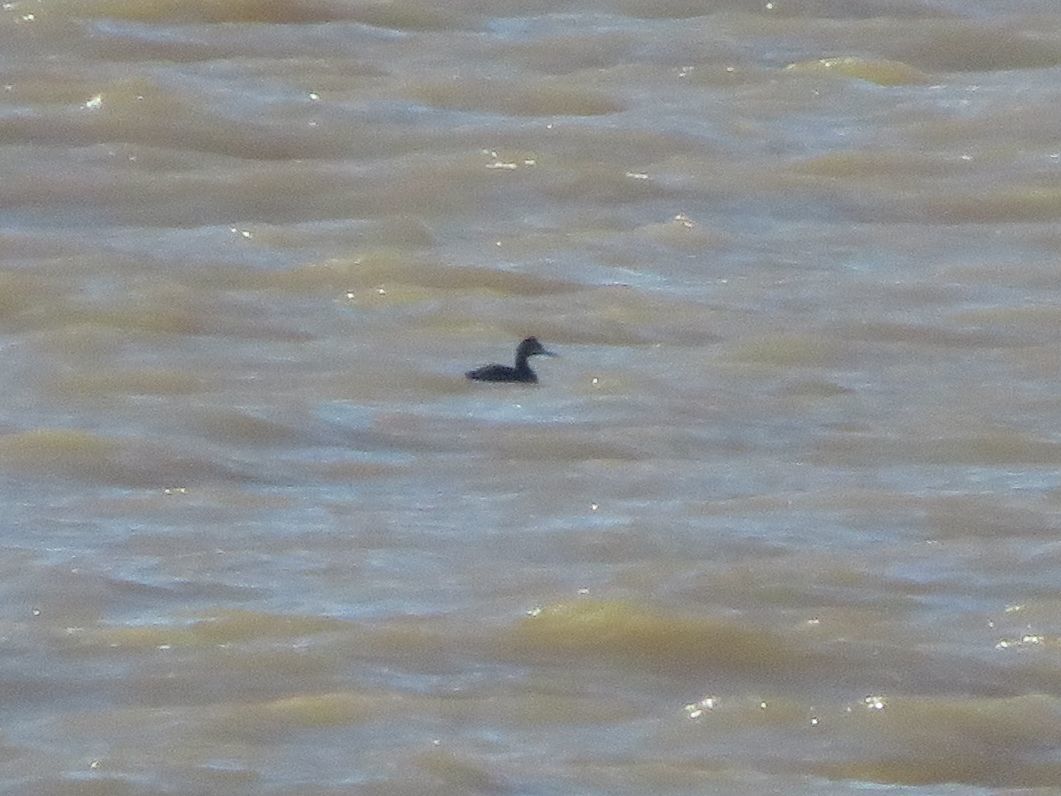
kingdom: Animalia
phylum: Chordata
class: Aves
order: Podicipediformes
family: Podicipedidae
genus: Podiceps
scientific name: Podiceps major
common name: Great grebe
